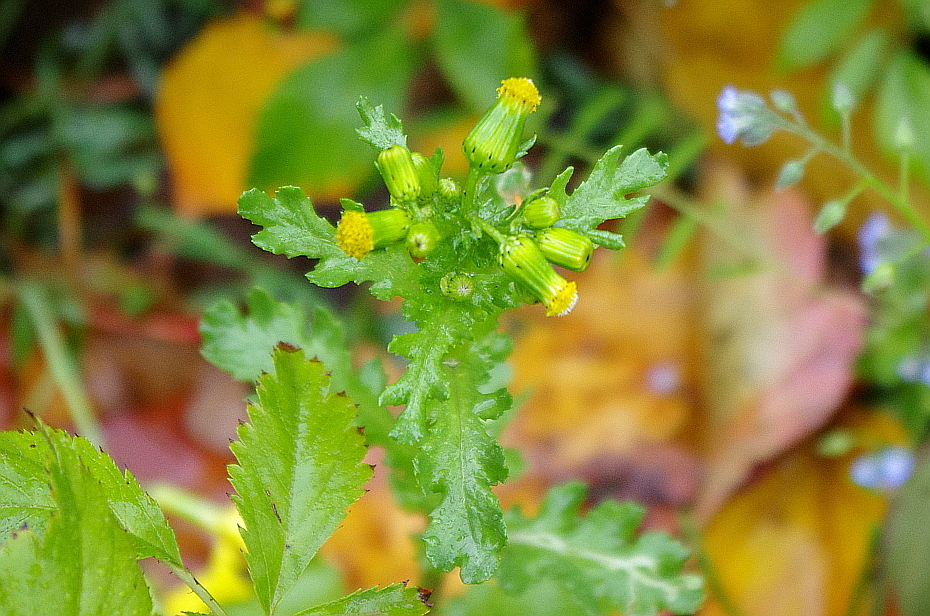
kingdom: Plantae
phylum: Tracheophyta
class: Magnoliopsida
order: Asterales
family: Asteraceae
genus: Senecio
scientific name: Senecio vulgaris
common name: Old-man-in-the-spring
